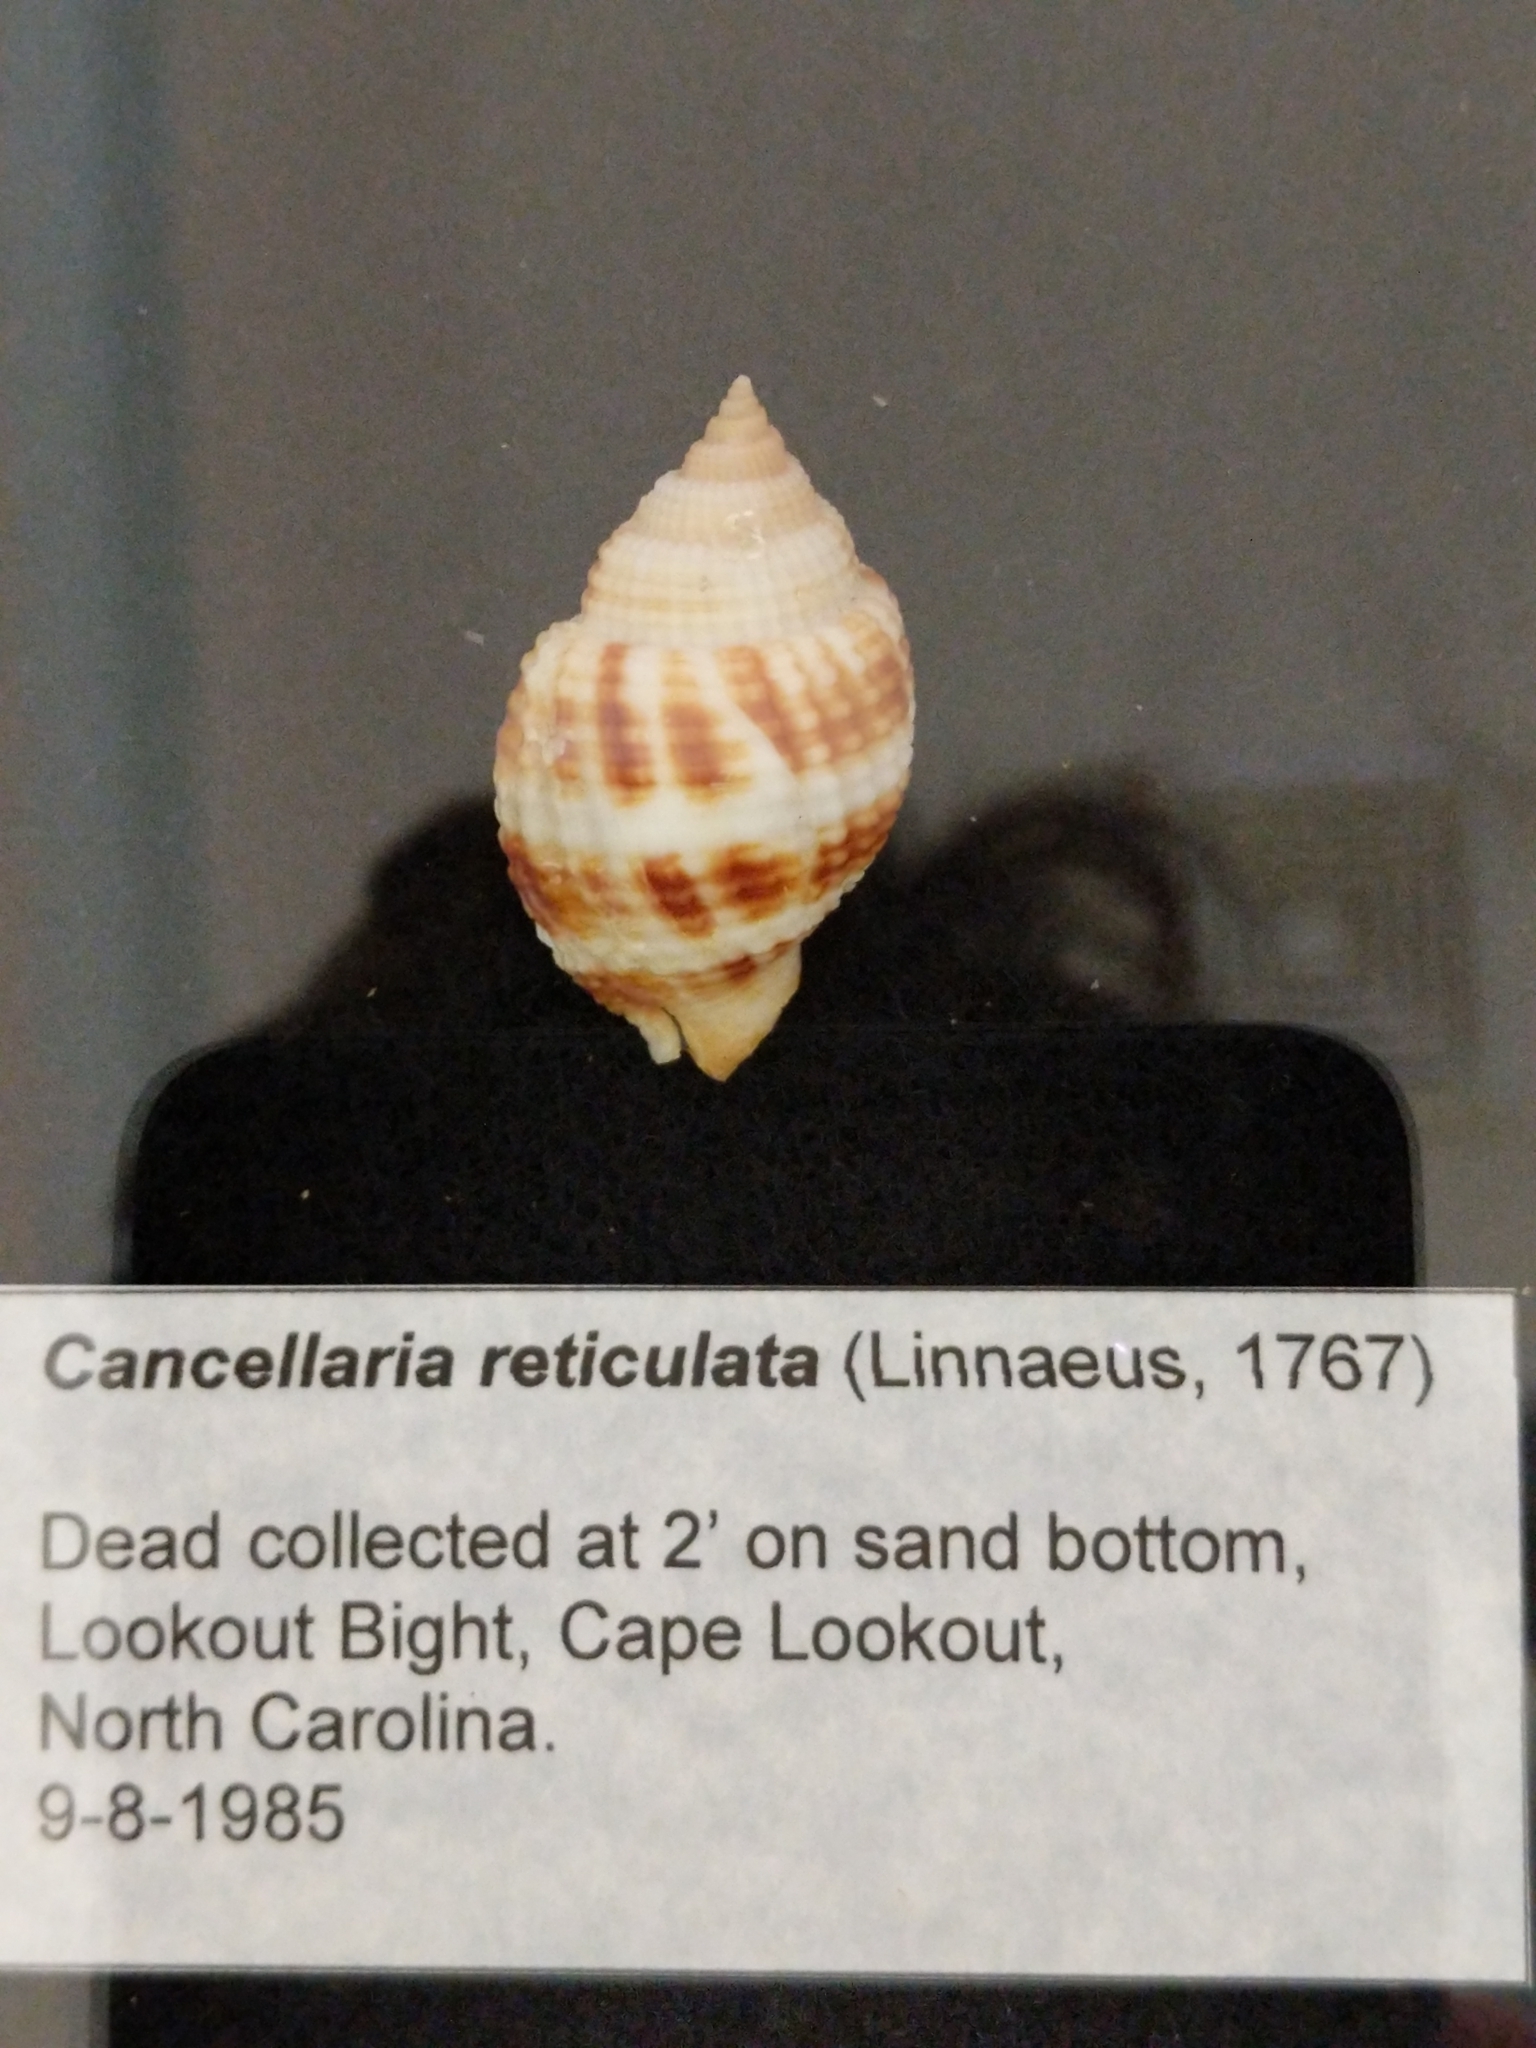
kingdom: Animalia
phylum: Mollusca
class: Gastropoda
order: Neogastropoda
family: Cancellariidae
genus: Cancellaria
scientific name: Cancellaria reticulata
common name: Common nutmeg
